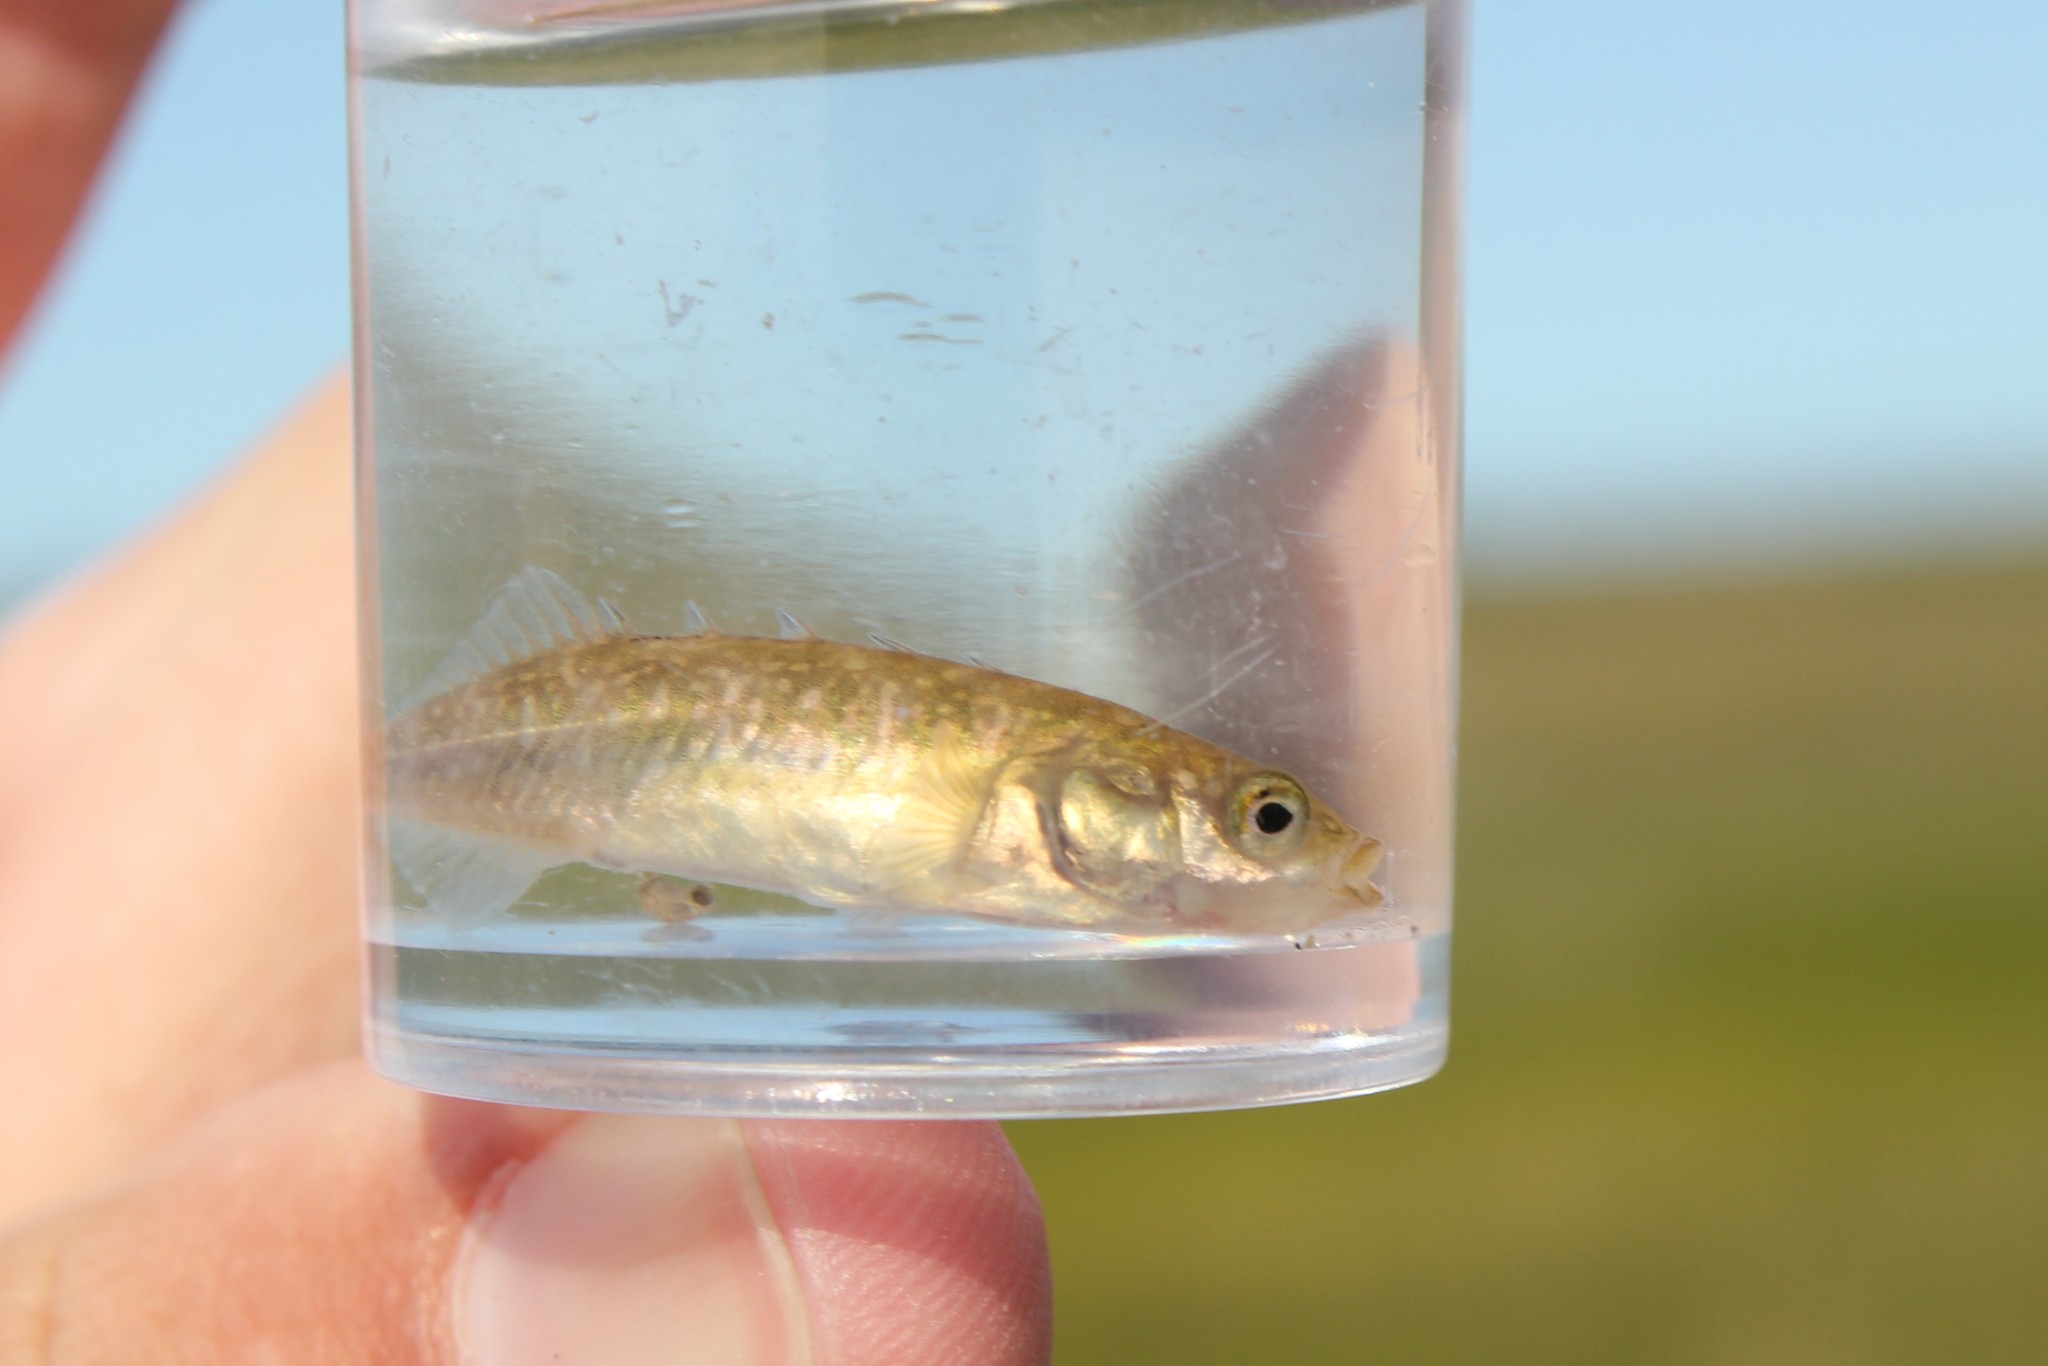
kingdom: Animalia
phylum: Chordata
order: Gasterosteiformes
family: Gasterosteidae
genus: Culaea
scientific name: Culaea inconstans
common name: Brook stickleback
